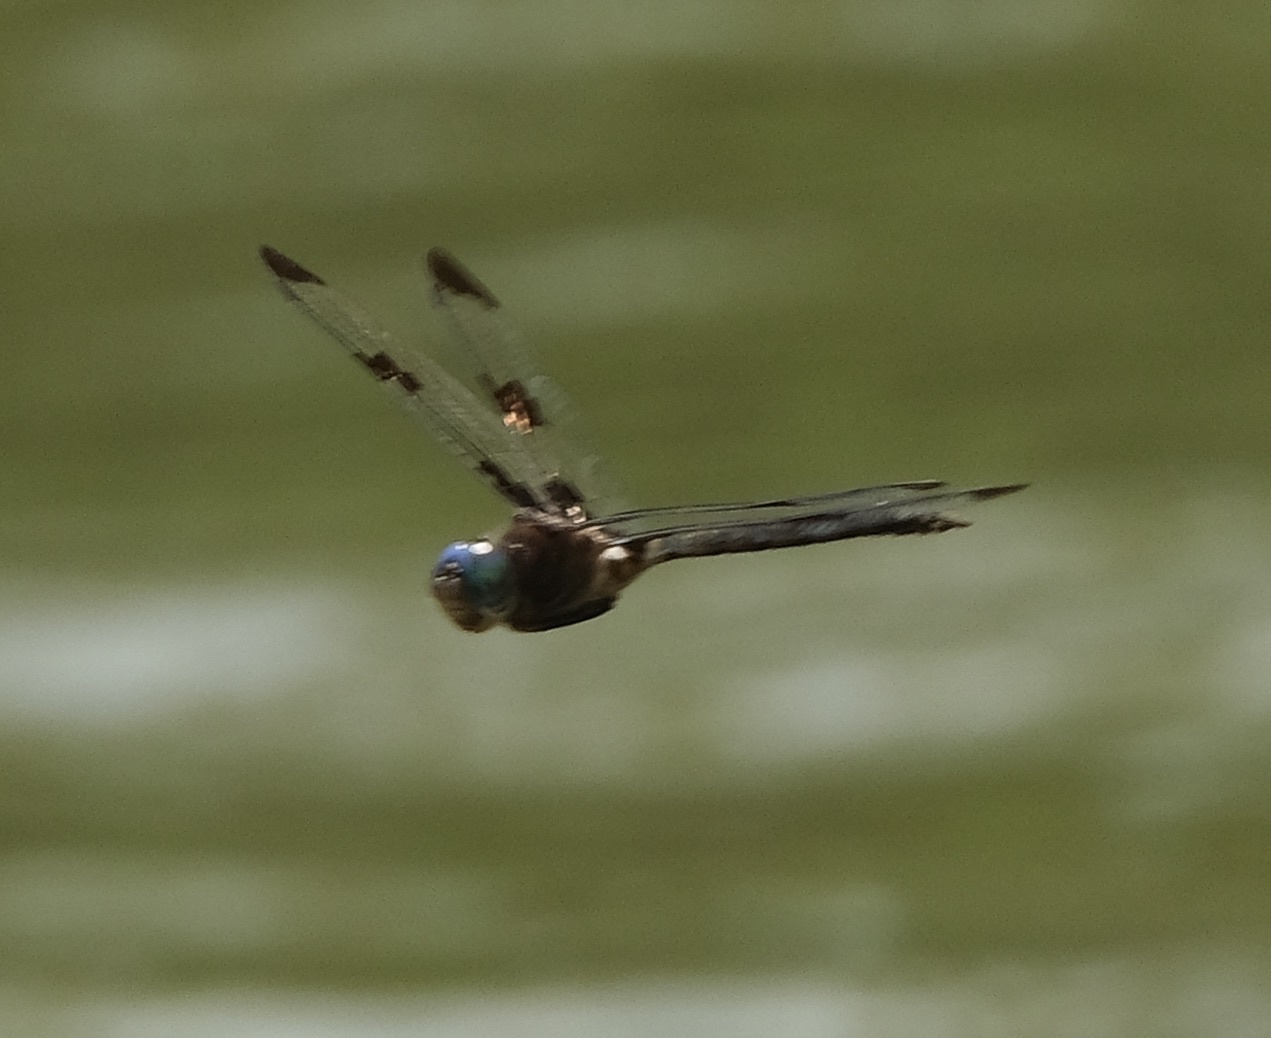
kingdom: Animalia
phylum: Arthropoda
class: Insecta
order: Odonata
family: Corduliidae
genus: Epitheca
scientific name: Epitheca princeps
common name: Prince baskettail
